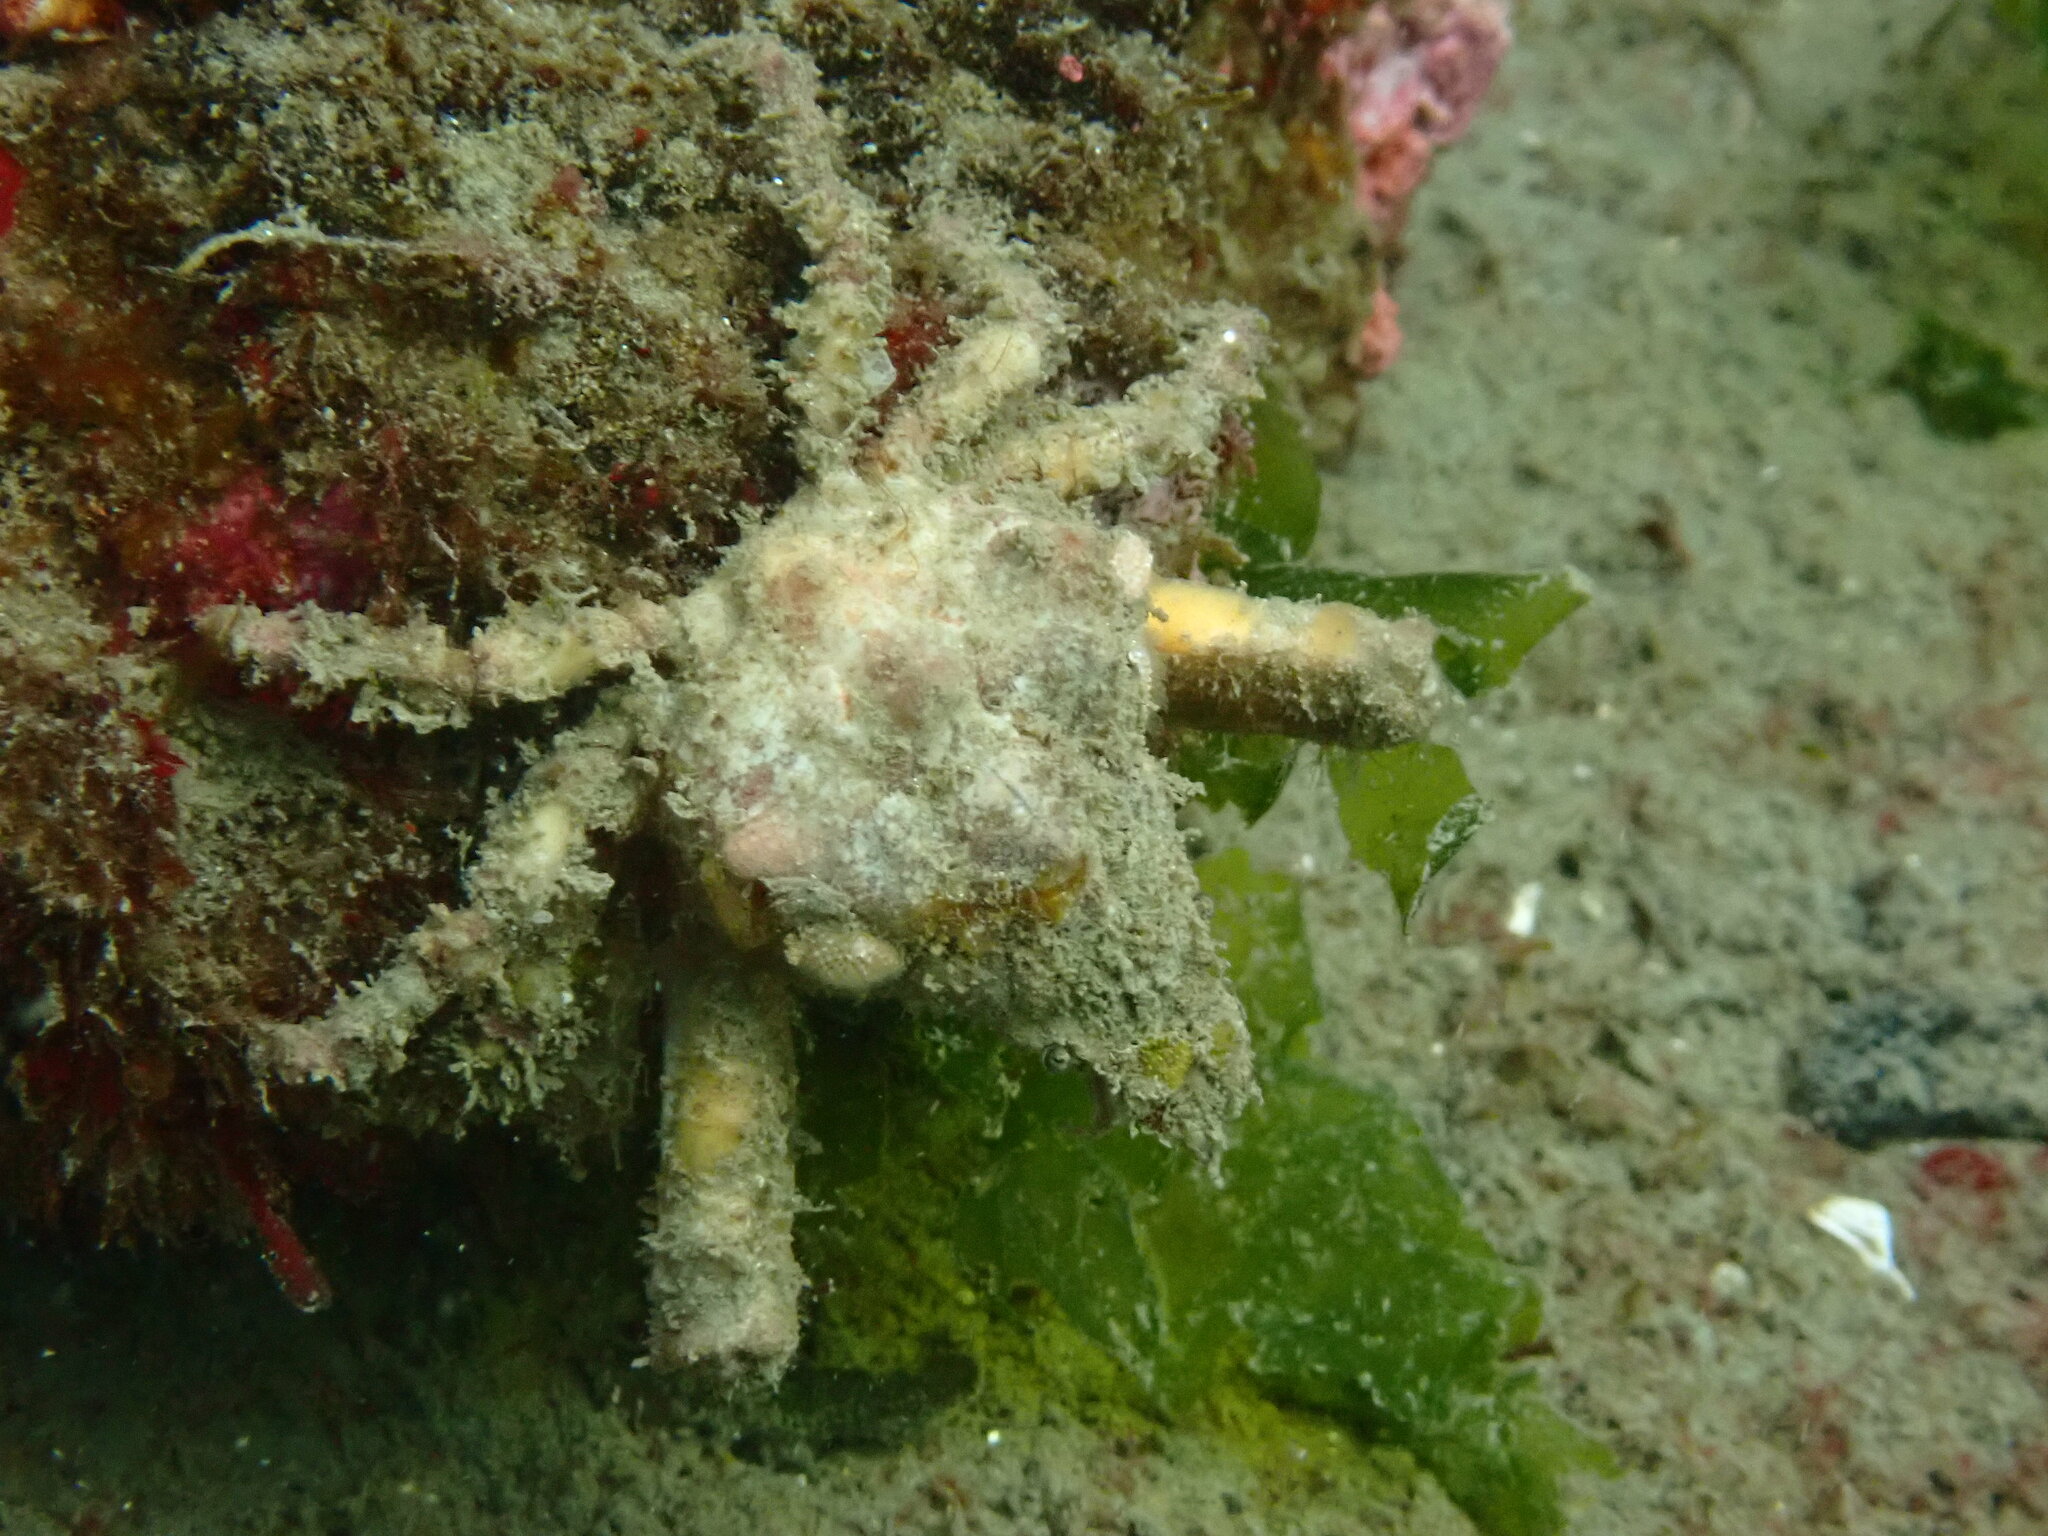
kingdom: Animalia
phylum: Arthropoda
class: Malacostraca
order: Decapoda
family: Epialtidae
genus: Scyra
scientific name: Scyra acutifrons
